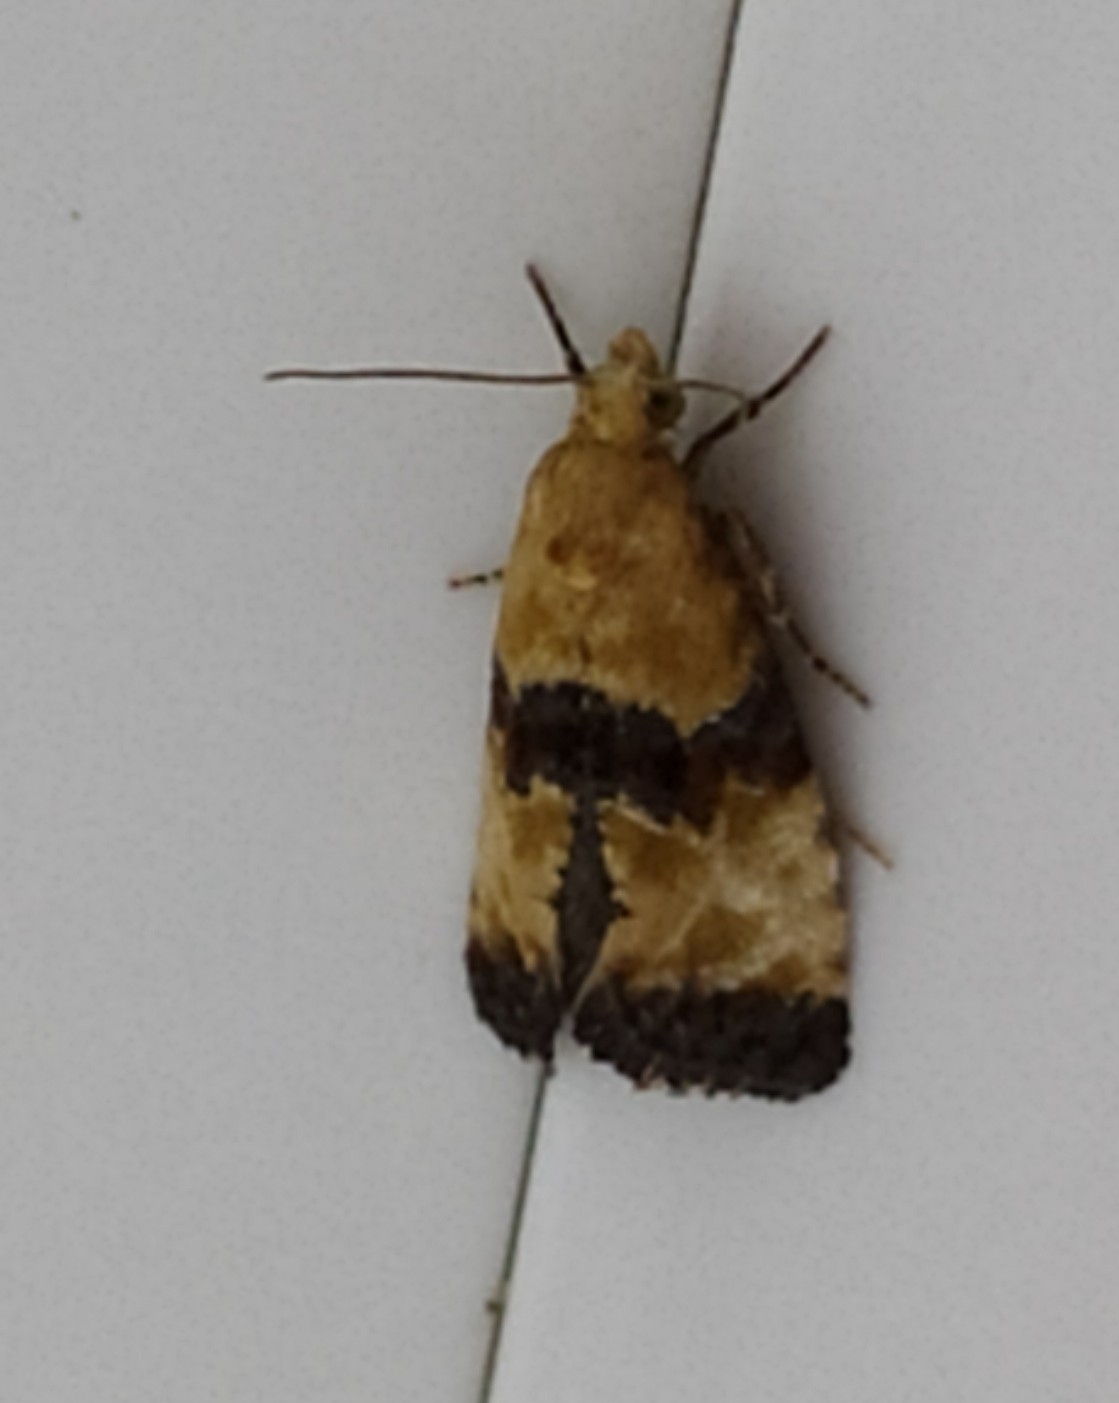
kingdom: Animalia
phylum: Arthropoda
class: Insecta
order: Lepidoptera
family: Tortricidae
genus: Eupoecilia
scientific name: Eupoecilia angustana
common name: Marbled conch
